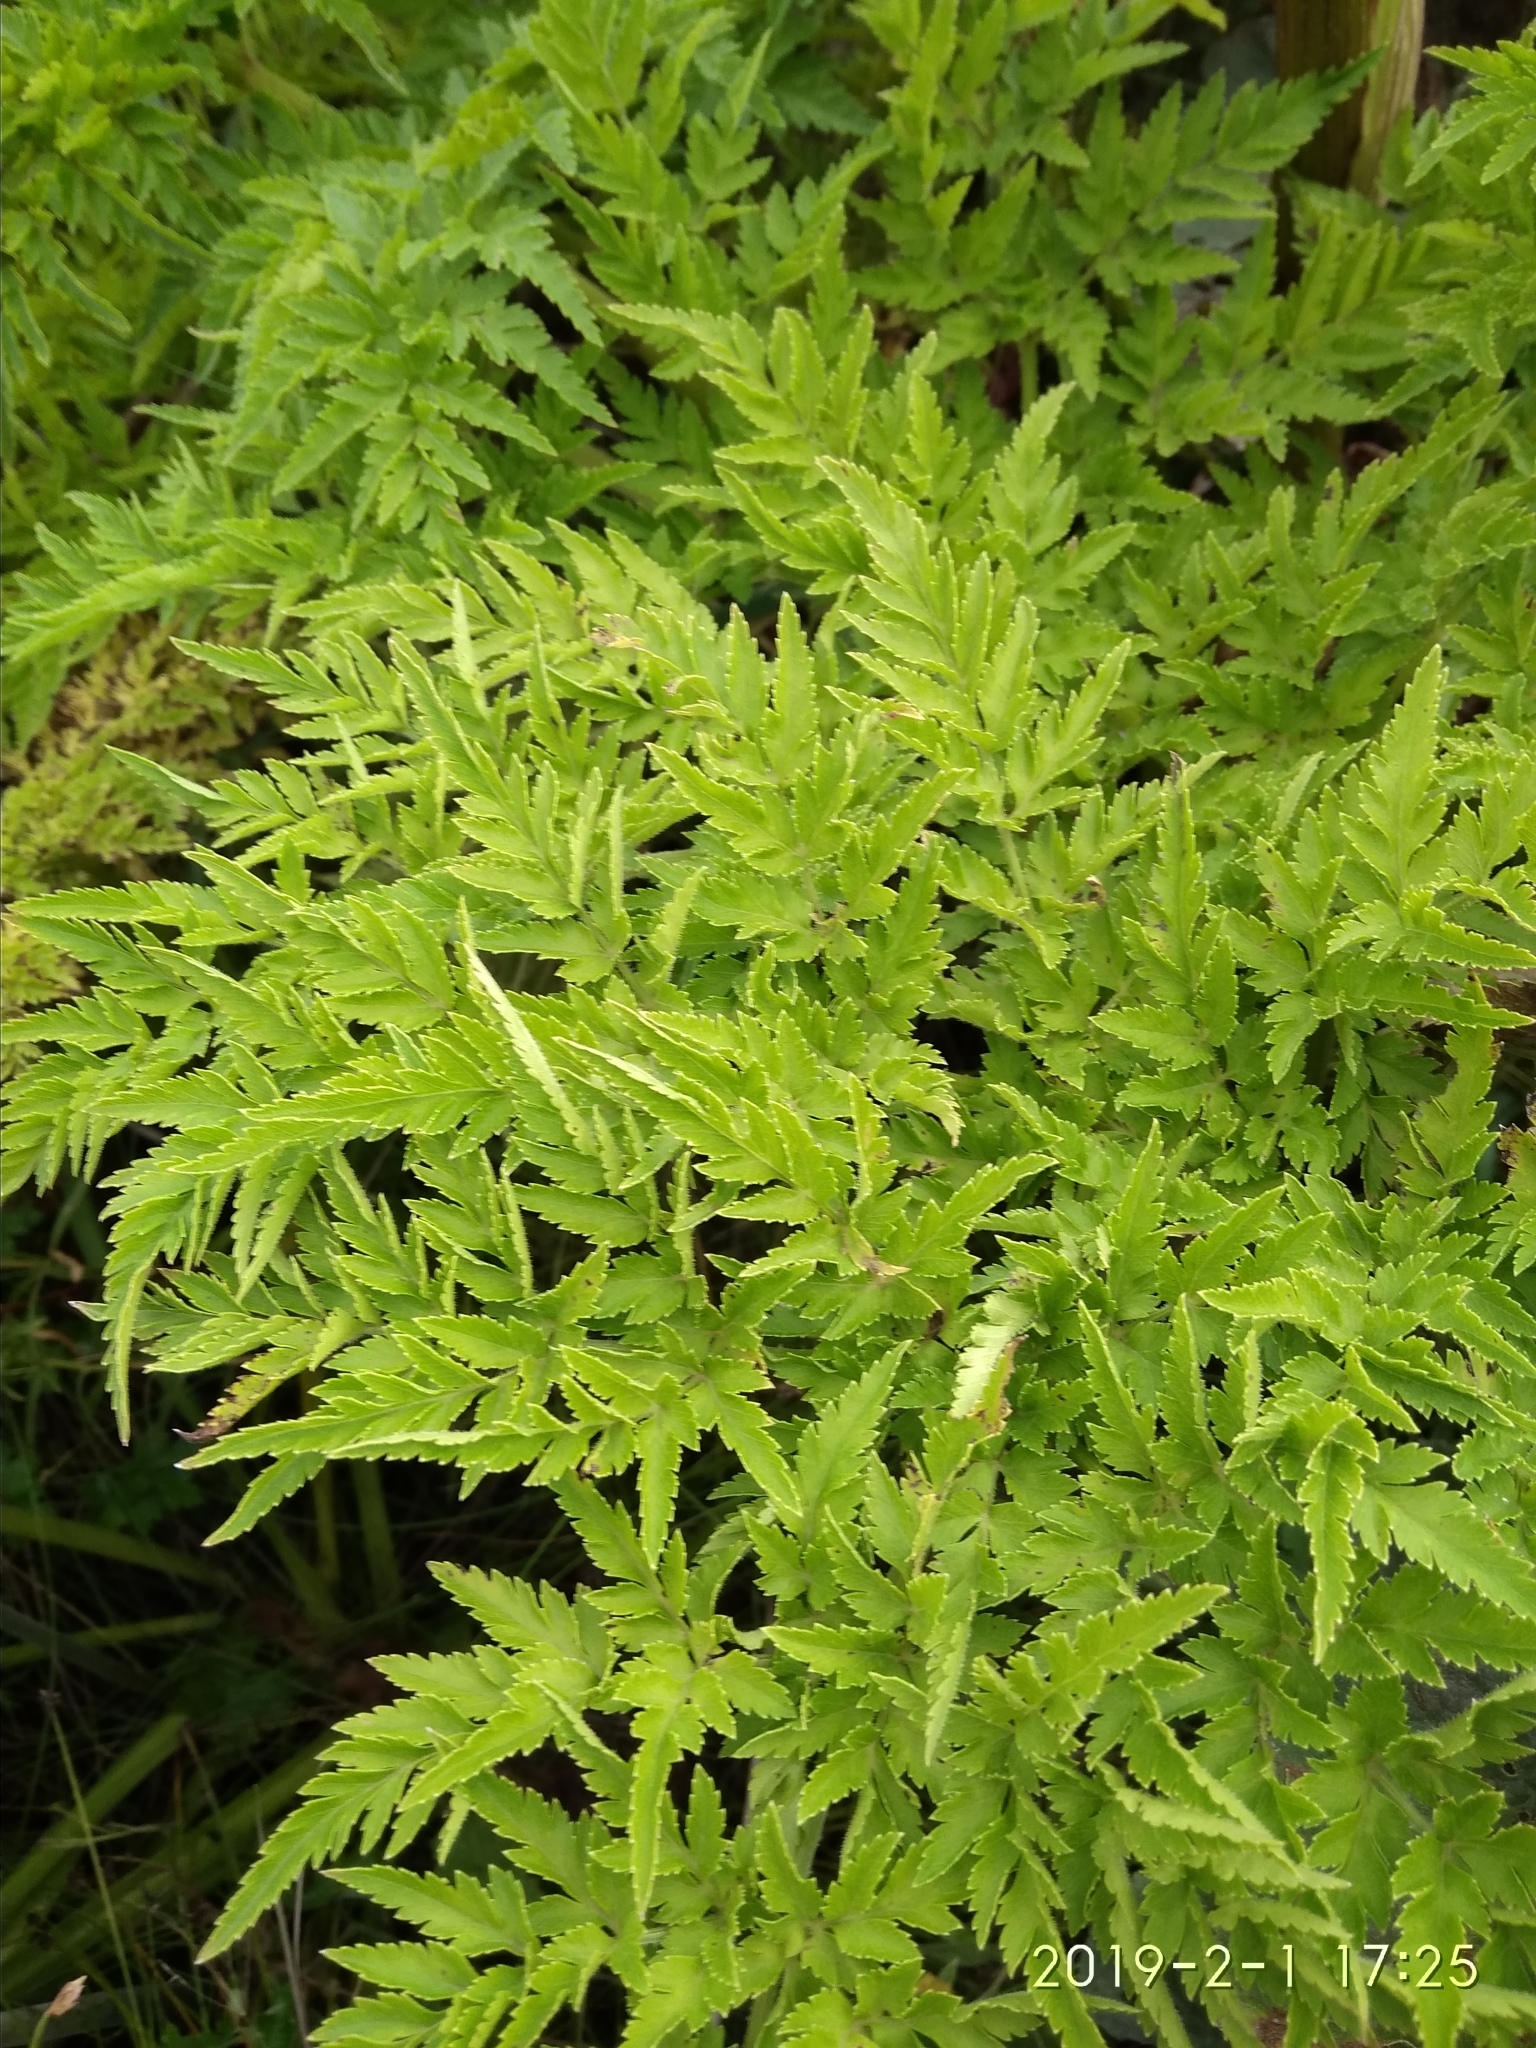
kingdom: Plantae
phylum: Tracheophyta
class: Magnoliopsida
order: Apiales
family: Apiaceae
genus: Afroligusticum
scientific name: Afroligusticum thodei
